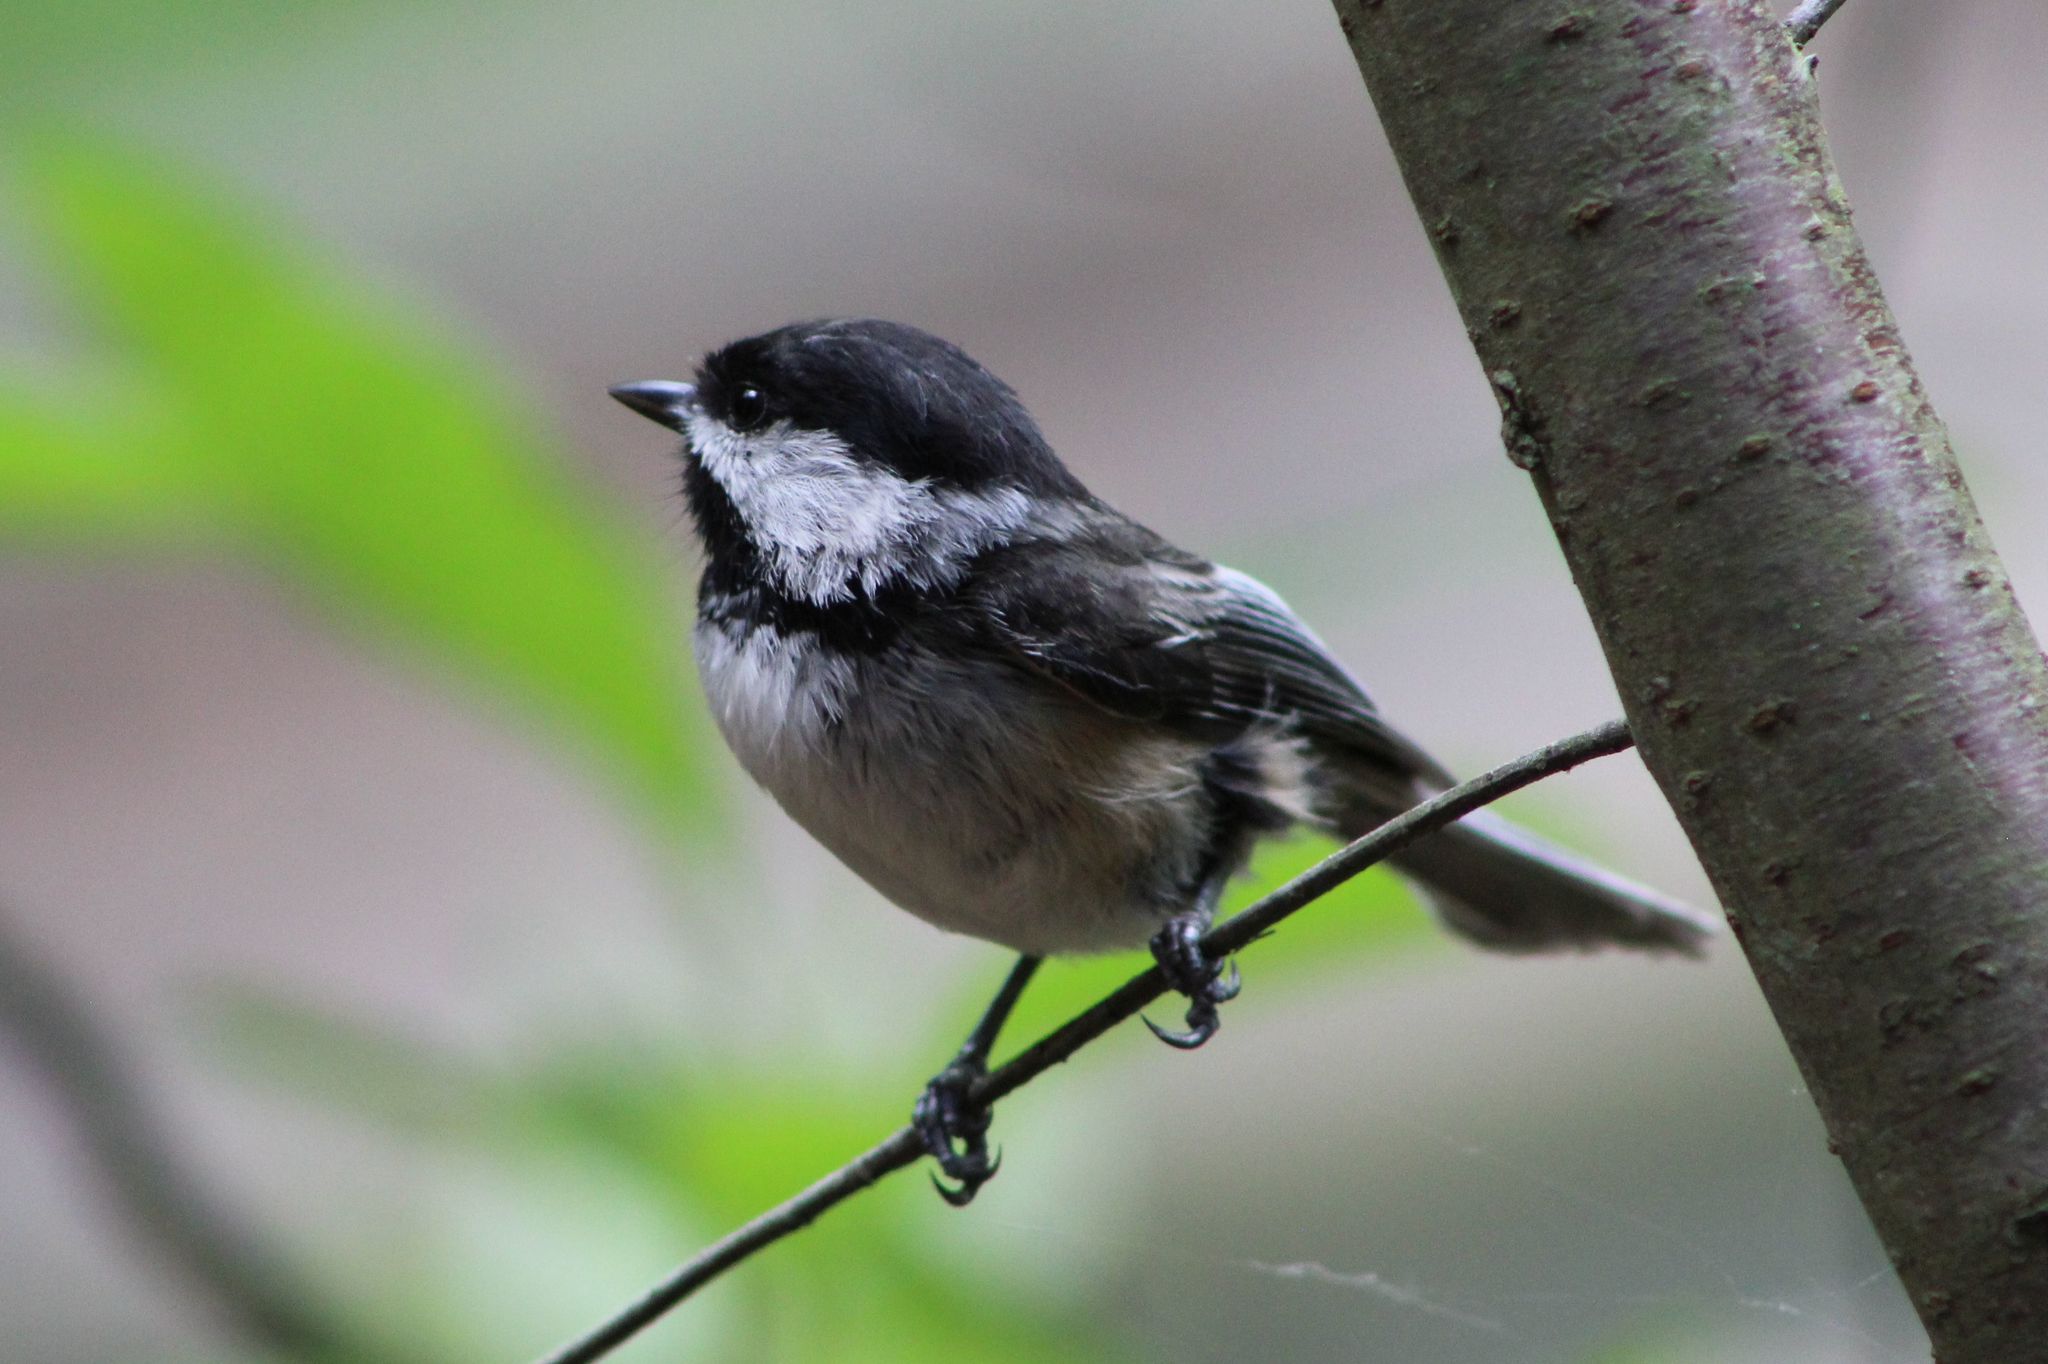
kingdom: Animalia
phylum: Chordata
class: Aves
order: Passeriformes
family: Paridae
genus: Poecile
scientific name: Poecile atricapillus
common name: Black-capped chickadee
